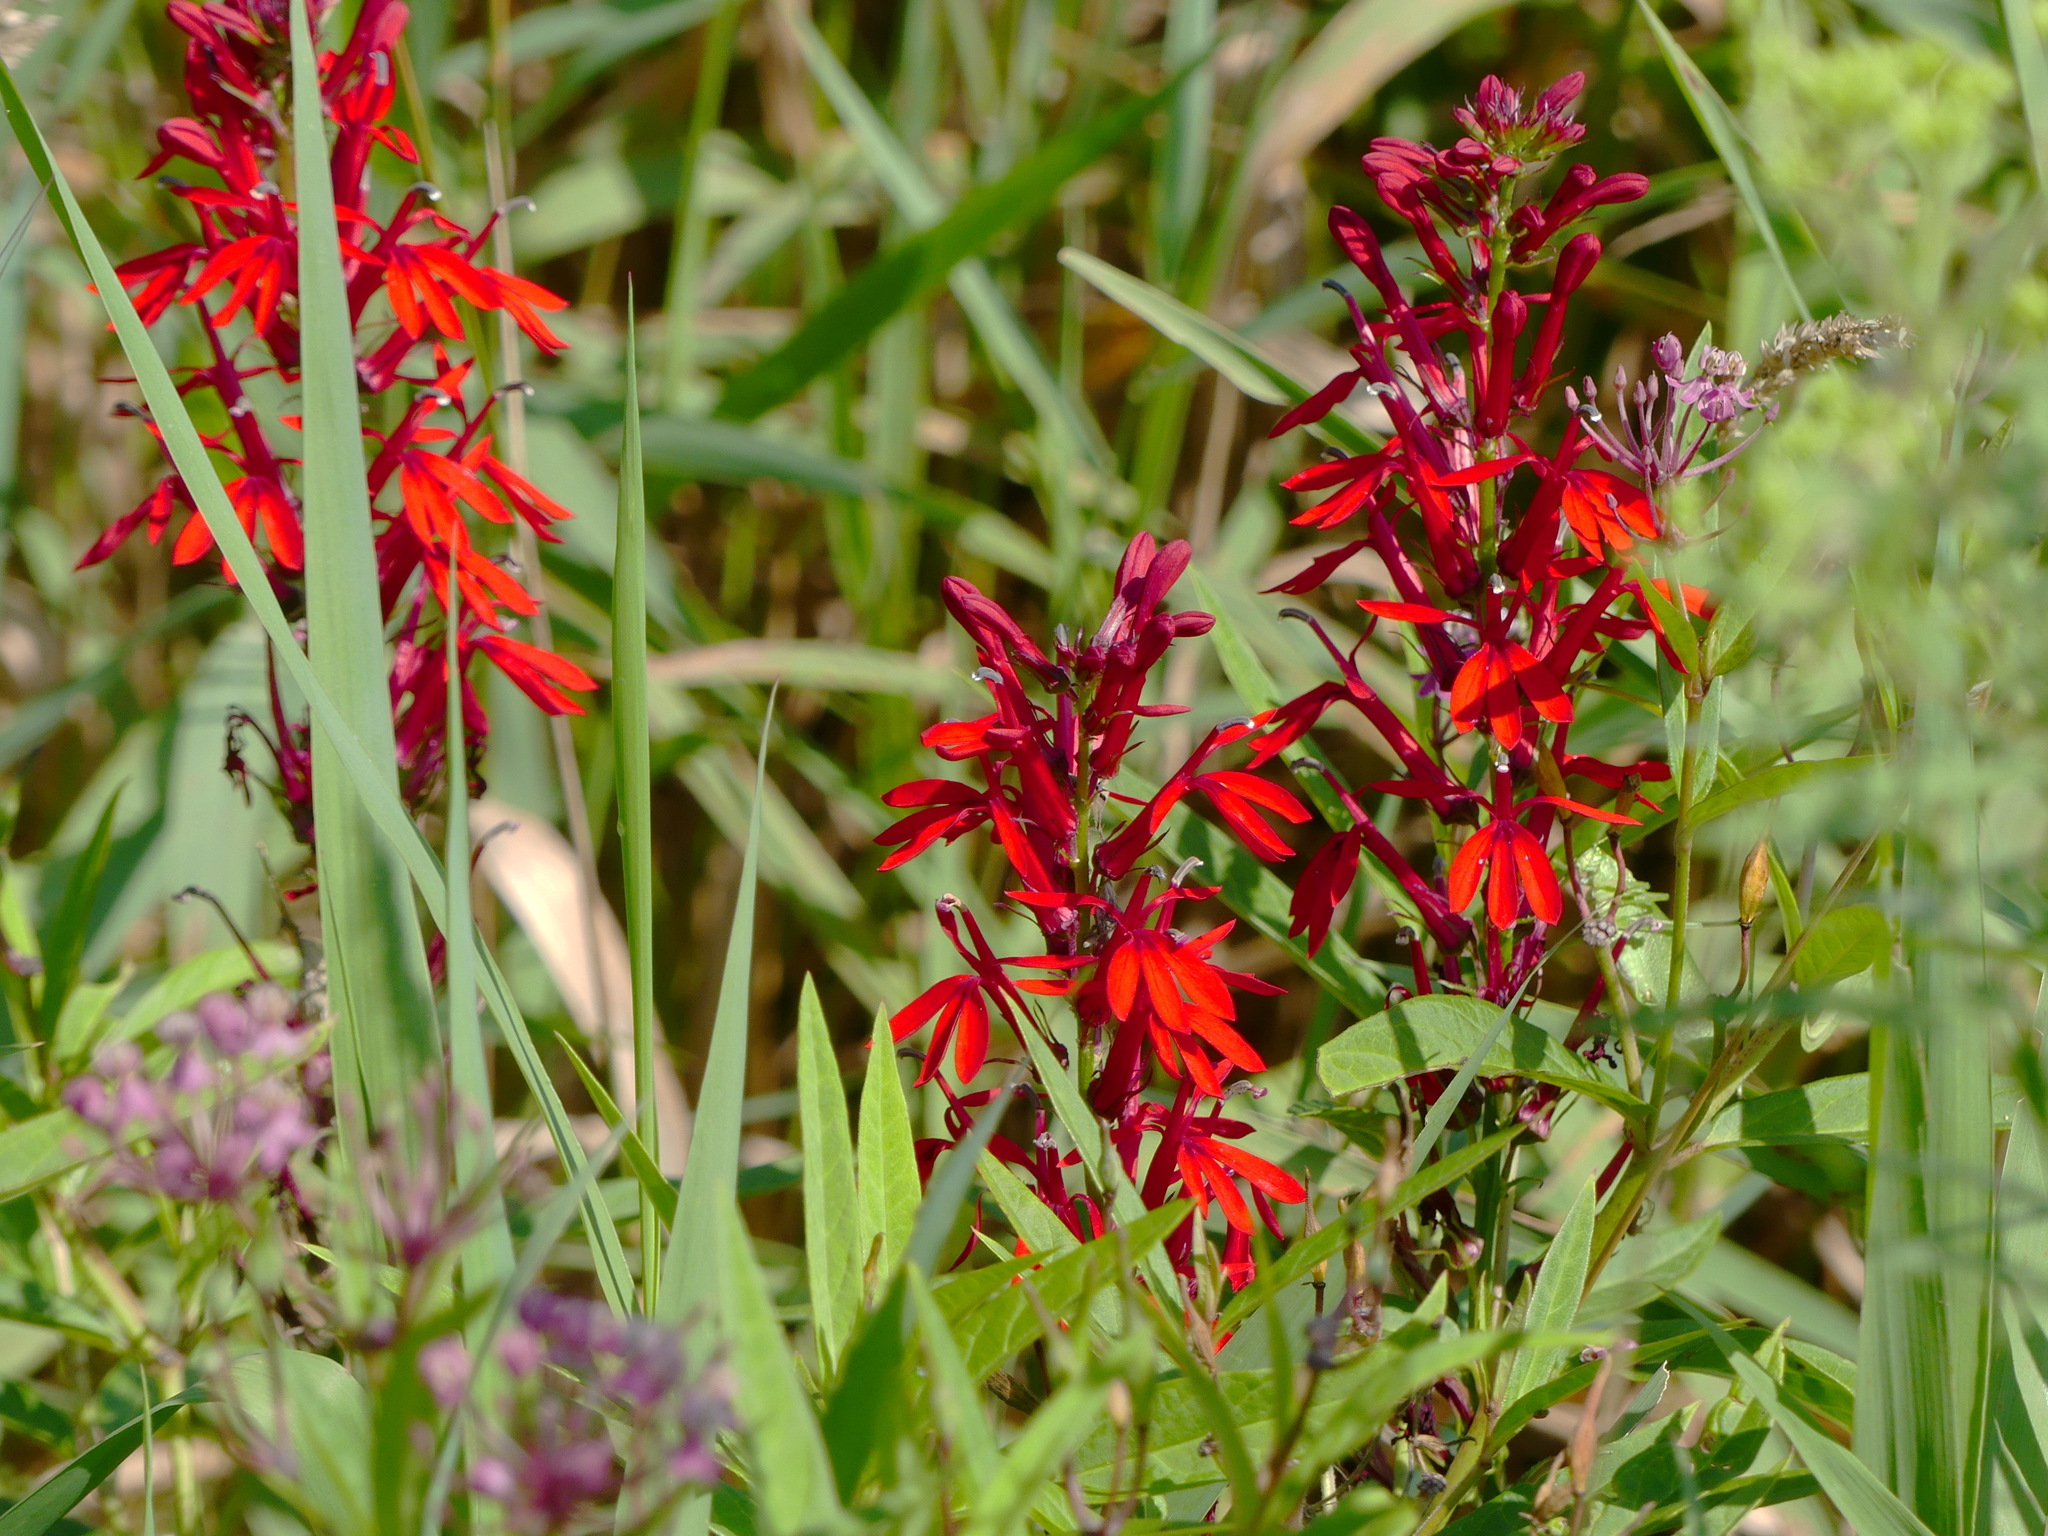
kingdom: Plantae
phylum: Tracheophyta
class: Magnoliopsida
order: Asterales
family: Campanulaceae
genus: Lobelia
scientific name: Lobelia cardinalis
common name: Cardinal flower
